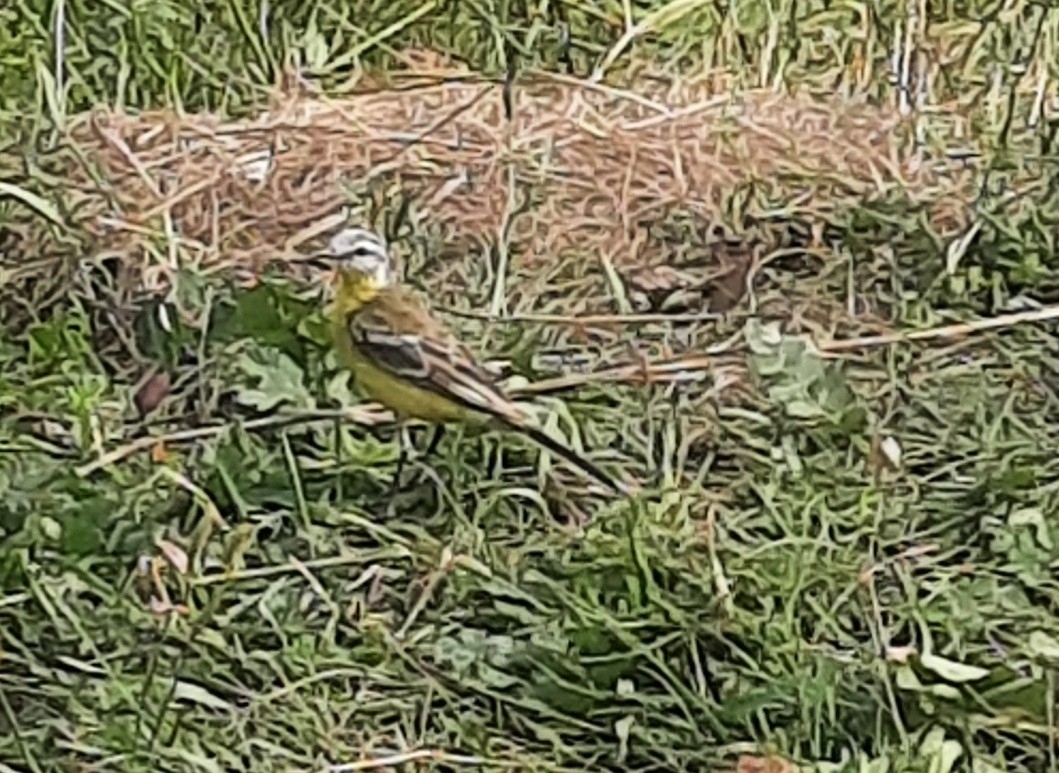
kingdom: Animalia
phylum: Chordata
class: Aves
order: Passeriformes
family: Motacillidae
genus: Motacilla
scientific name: Motacilla flava
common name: Western yellow wagtail
